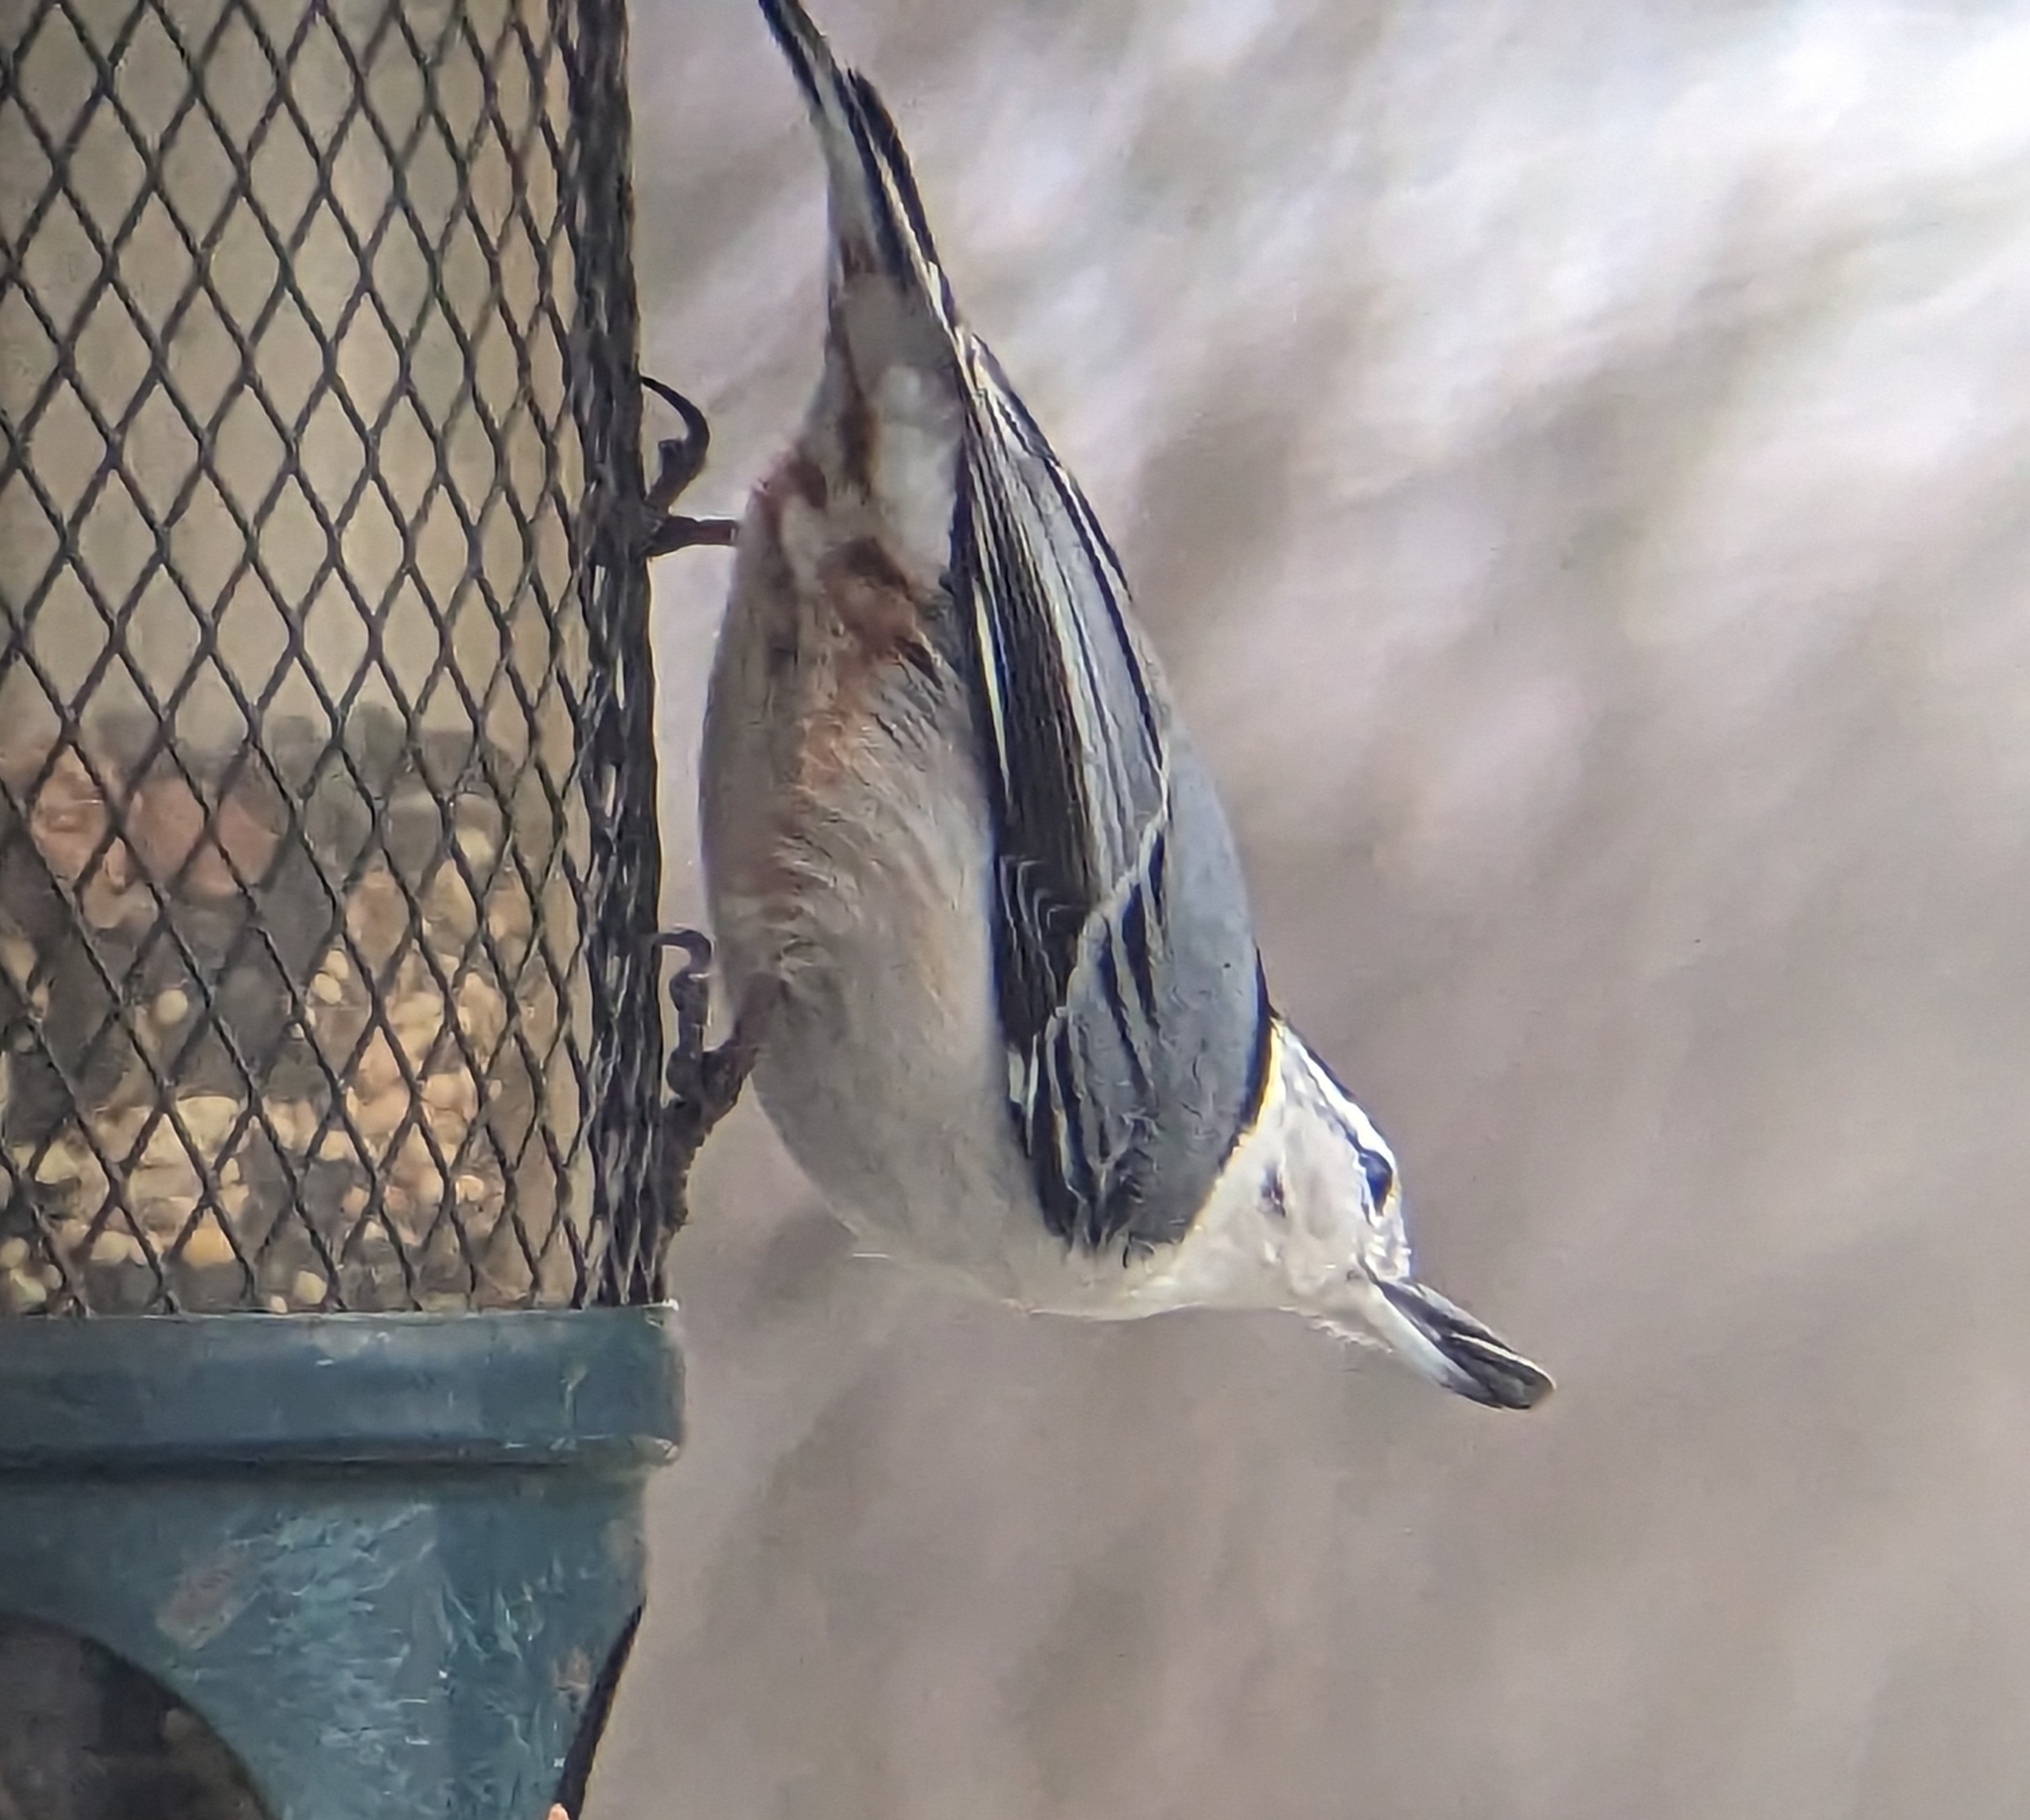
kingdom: Animalia
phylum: Chordata
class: Aves
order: Passeriformes
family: Sittidae
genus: Sitta
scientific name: Sitta carolinensis
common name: White-breasted nuthatch
